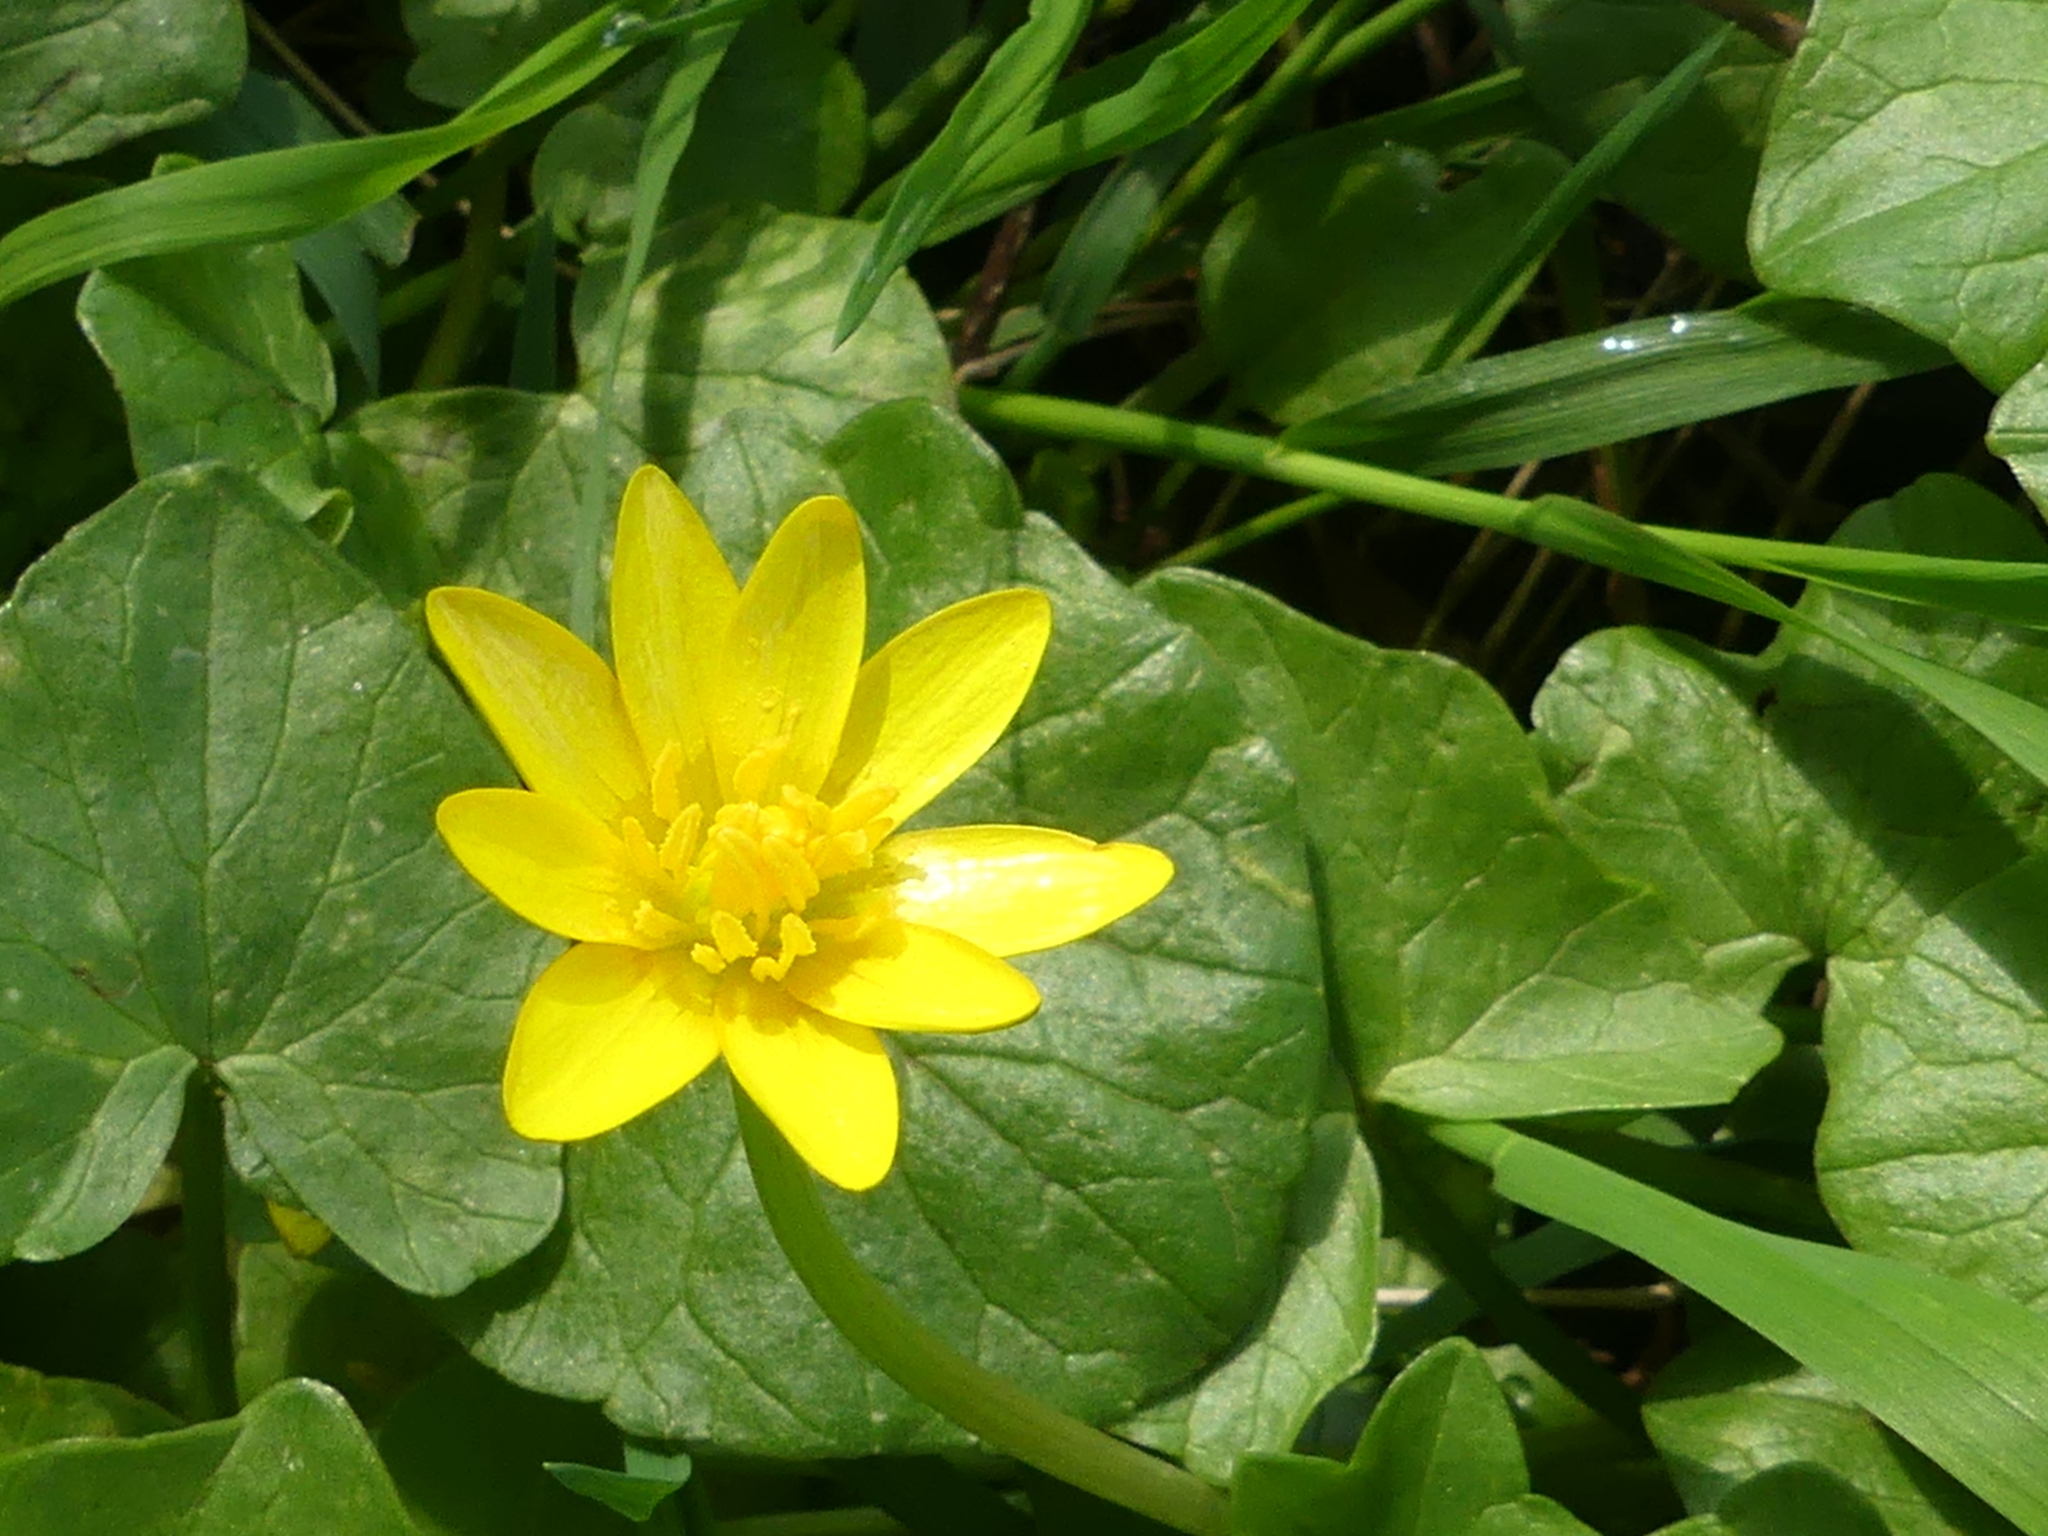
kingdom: Plantae
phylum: Tracheophyta
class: Magnoliopsida
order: Ranunculales
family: Ranunculaceae
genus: Ficaria
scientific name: Ficaria verna
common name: Lesser celandine
